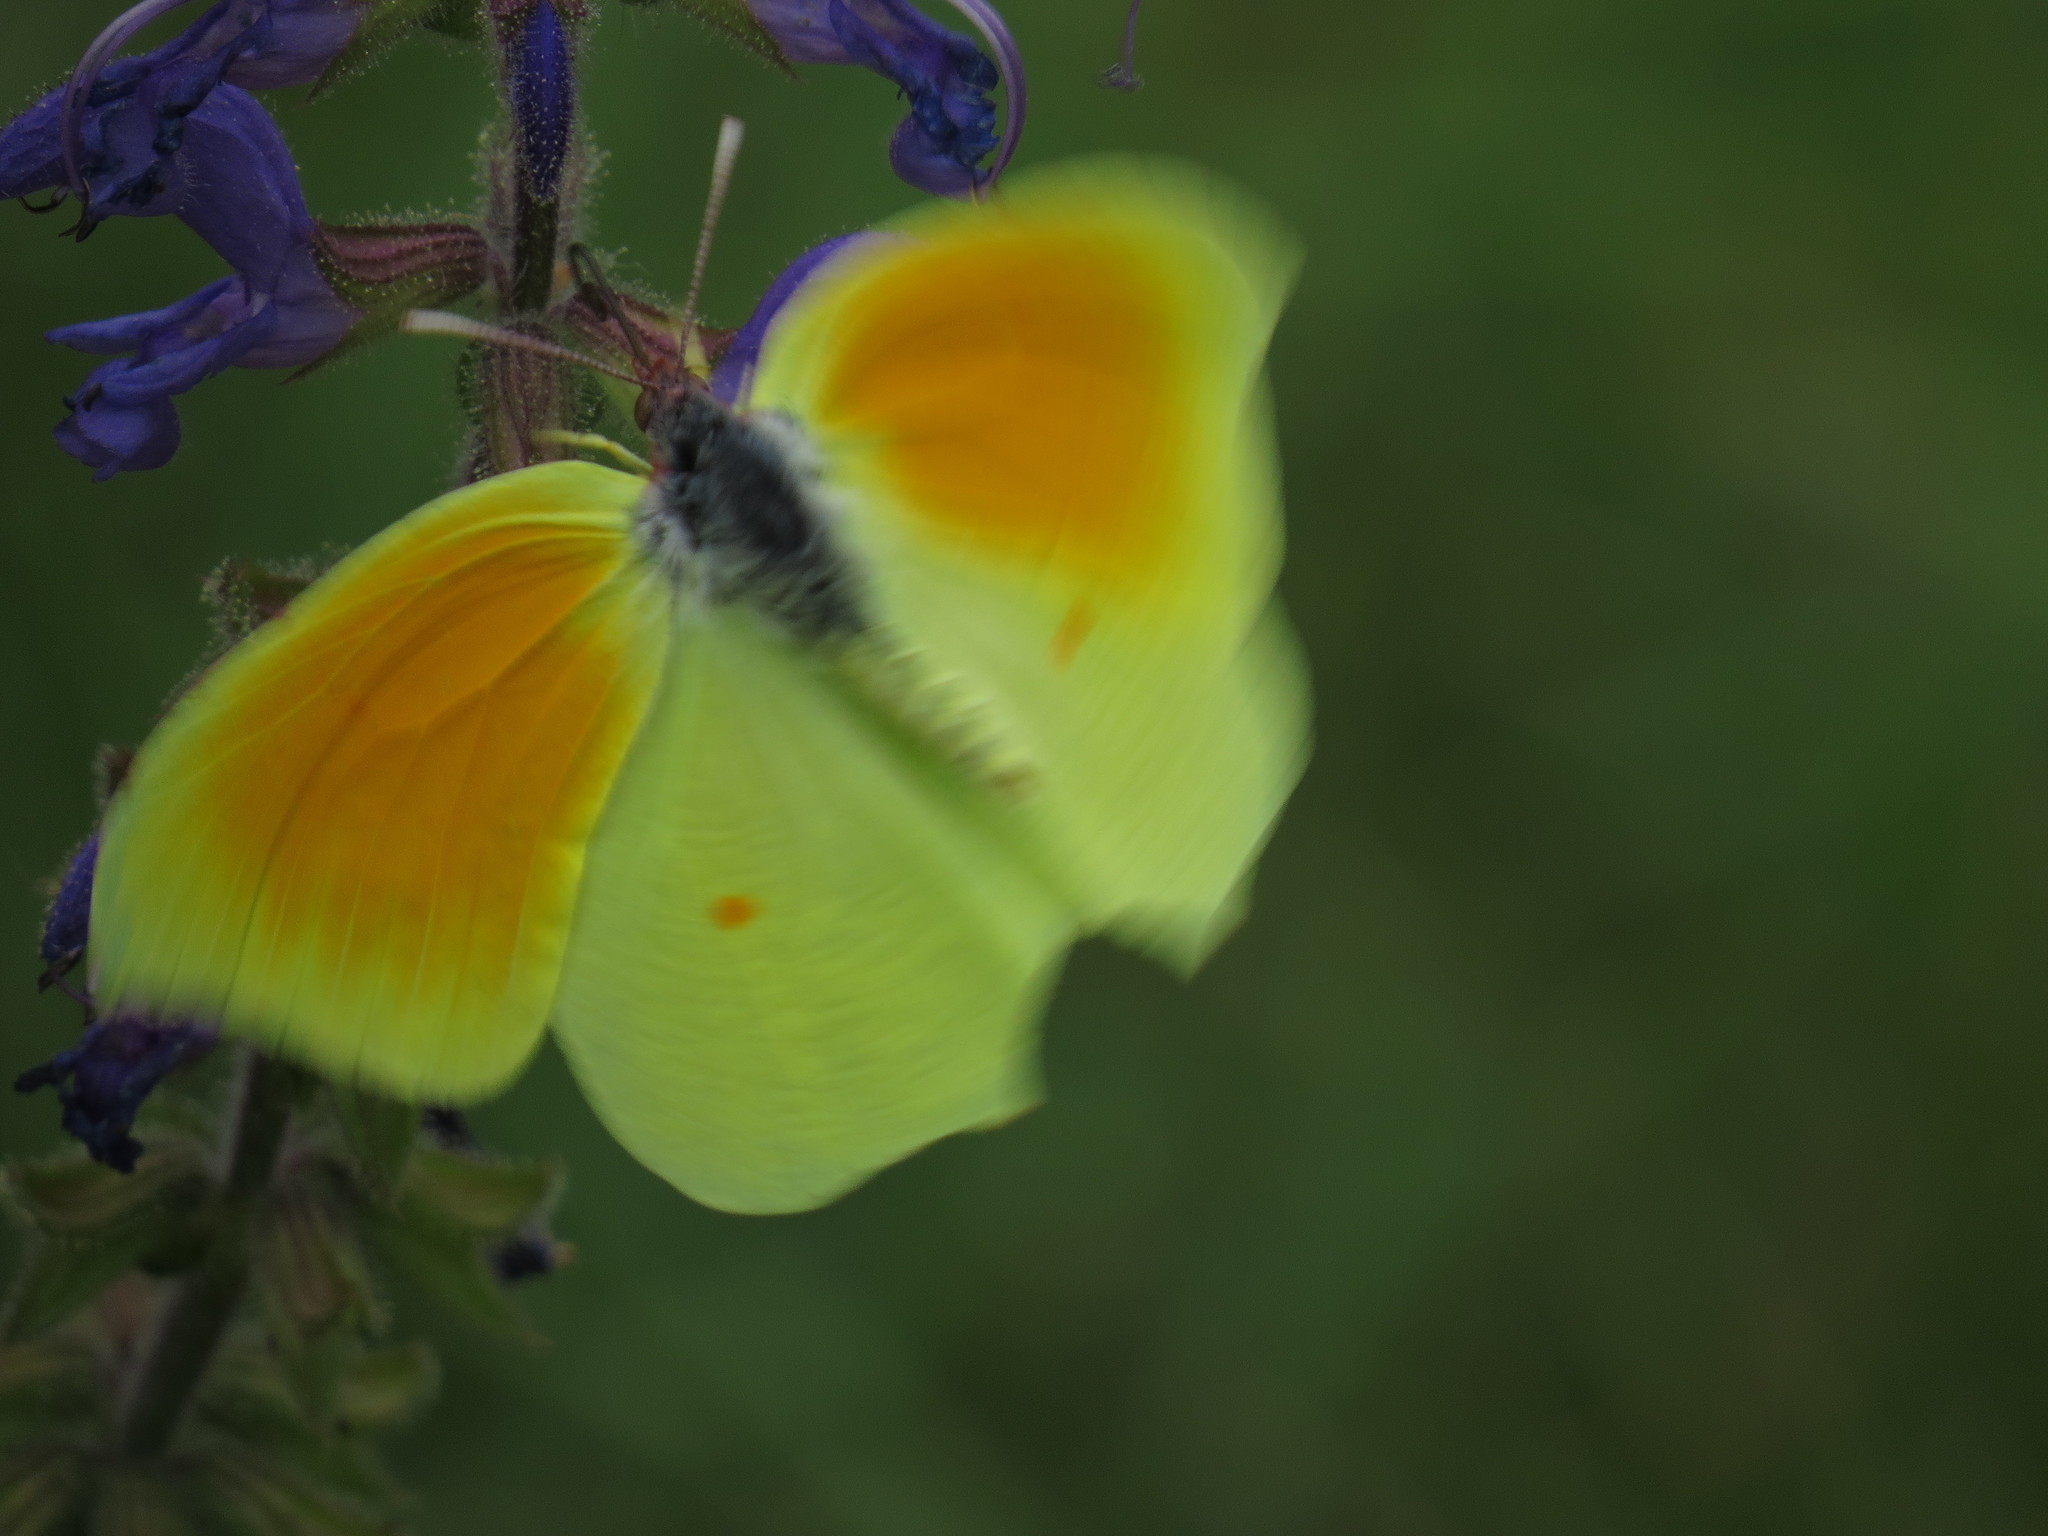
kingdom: Animalia
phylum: Arthropoda
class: Insecta
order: Lepidoptera
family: Pieridae
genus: Gonepteryx
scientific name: Gonepteryx cleopatra
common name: Cleopatra
